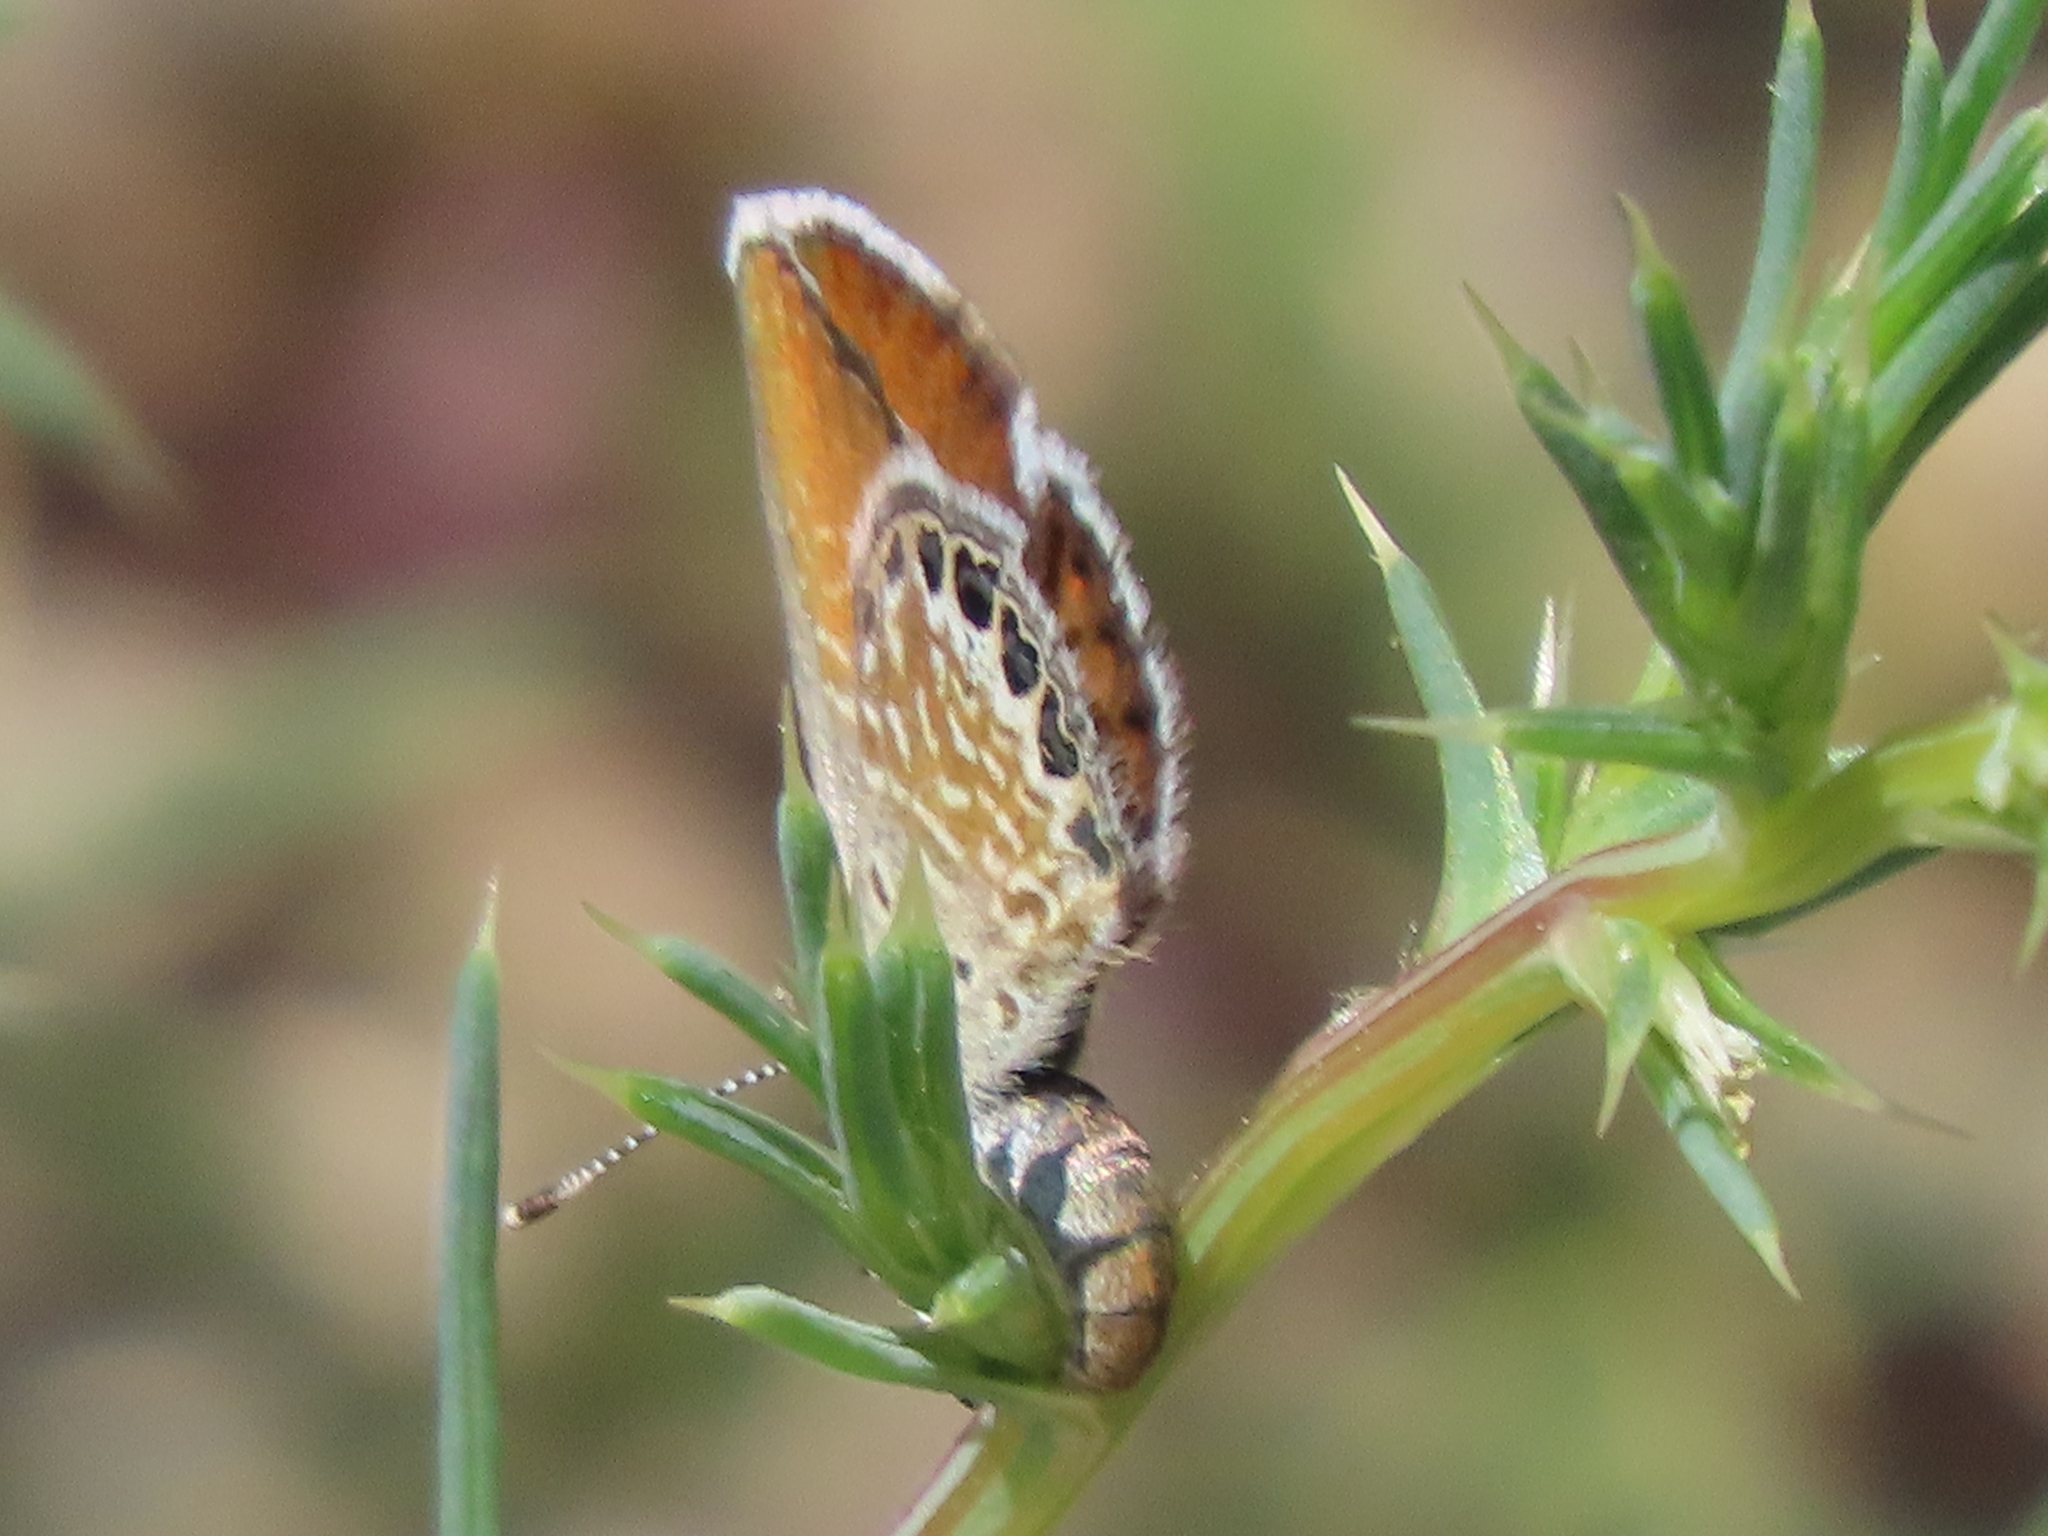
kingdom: Animalia
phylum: Arthropoda
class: Insecta
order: Lepidoptera
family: Lycaenidae
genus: Brephidium
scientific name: Brephidium exilis
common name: Pygmy blue
